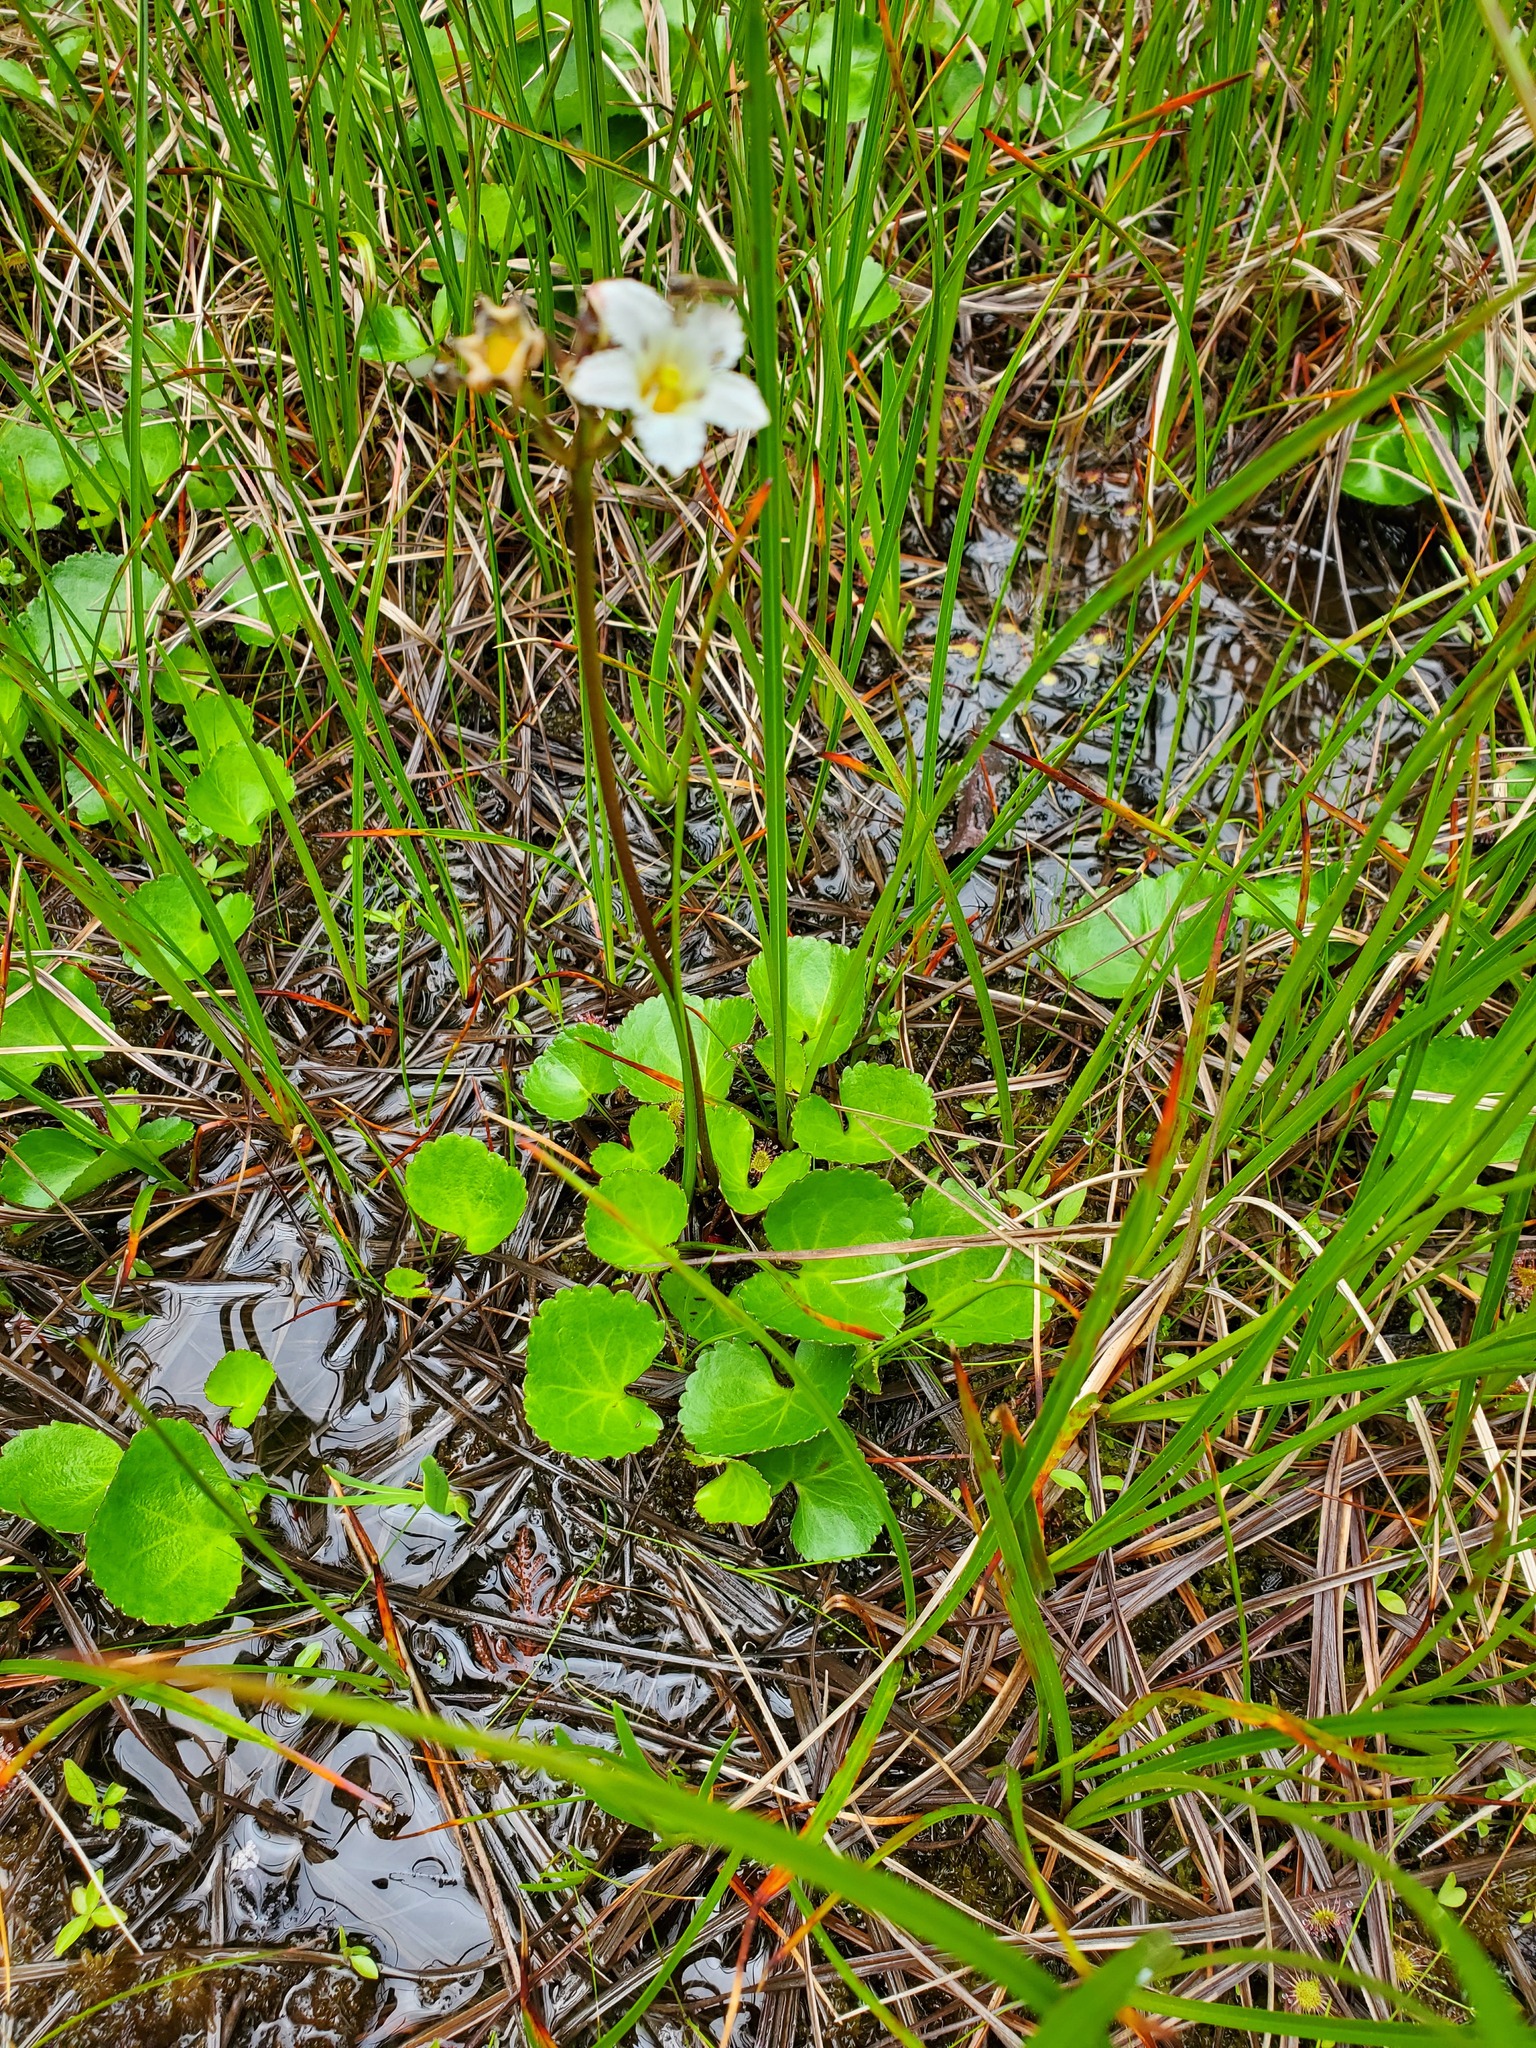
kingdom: Plantae
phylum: Tracheophyta
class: Magnoliopsida
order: Asterales
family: Menyanthaceae
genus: Nephrophyllidium
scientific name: Nephrophyllidium crista-galli
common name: Deer-cabbage
